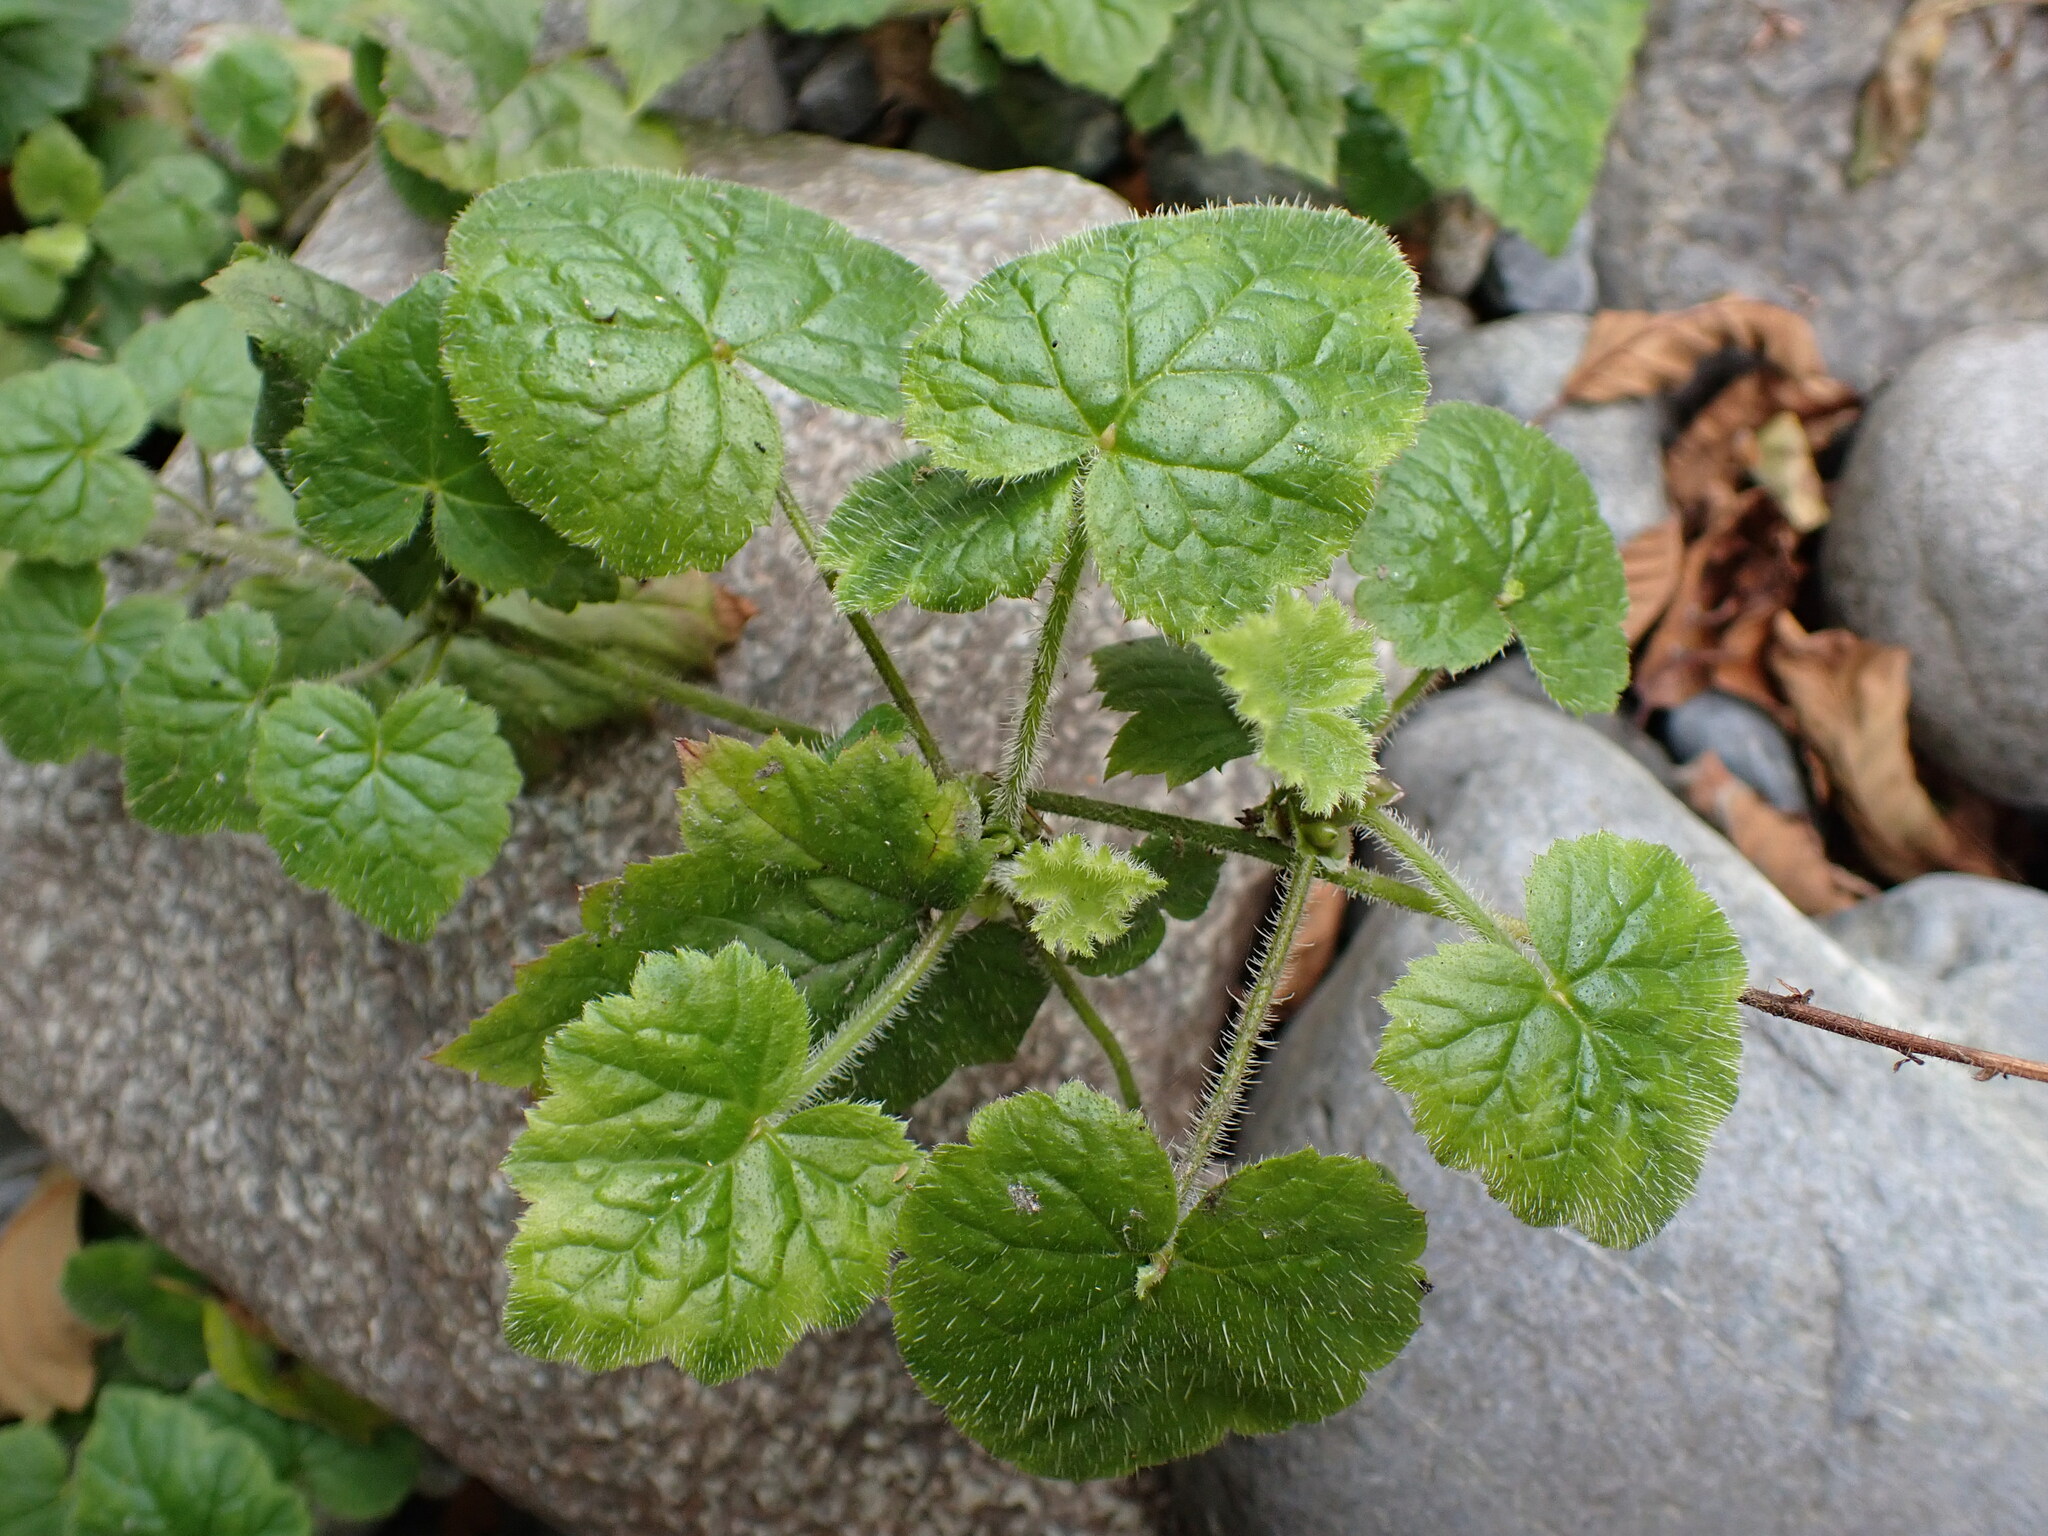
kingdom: Plantae
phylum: Tracheophyta
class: Magnoliopsida
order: Saxifragales
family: Saxifragaceae
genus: Tolmiea
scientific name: Tolmiea menziesii
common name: Pick-a-back-plant
